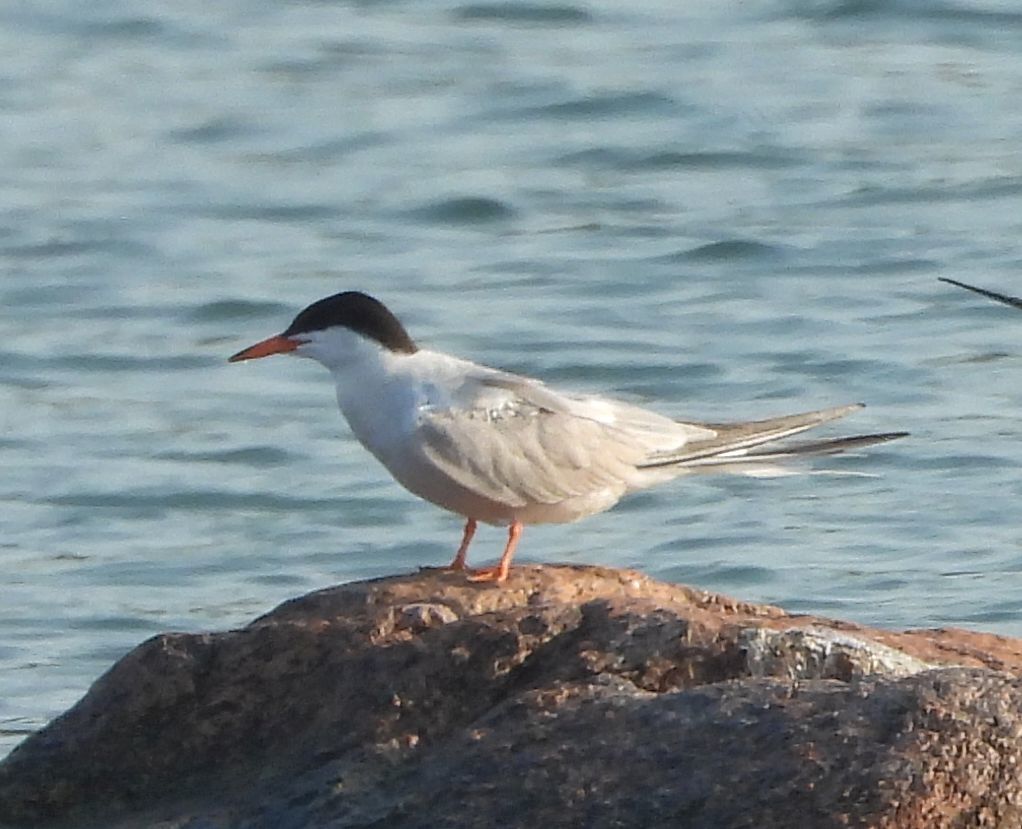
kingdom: Animalia
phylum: Chordata
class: Aves
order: Charadriiformes
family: Laridae
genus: Sterna
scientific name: Sterna hirundo
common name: Common tern
